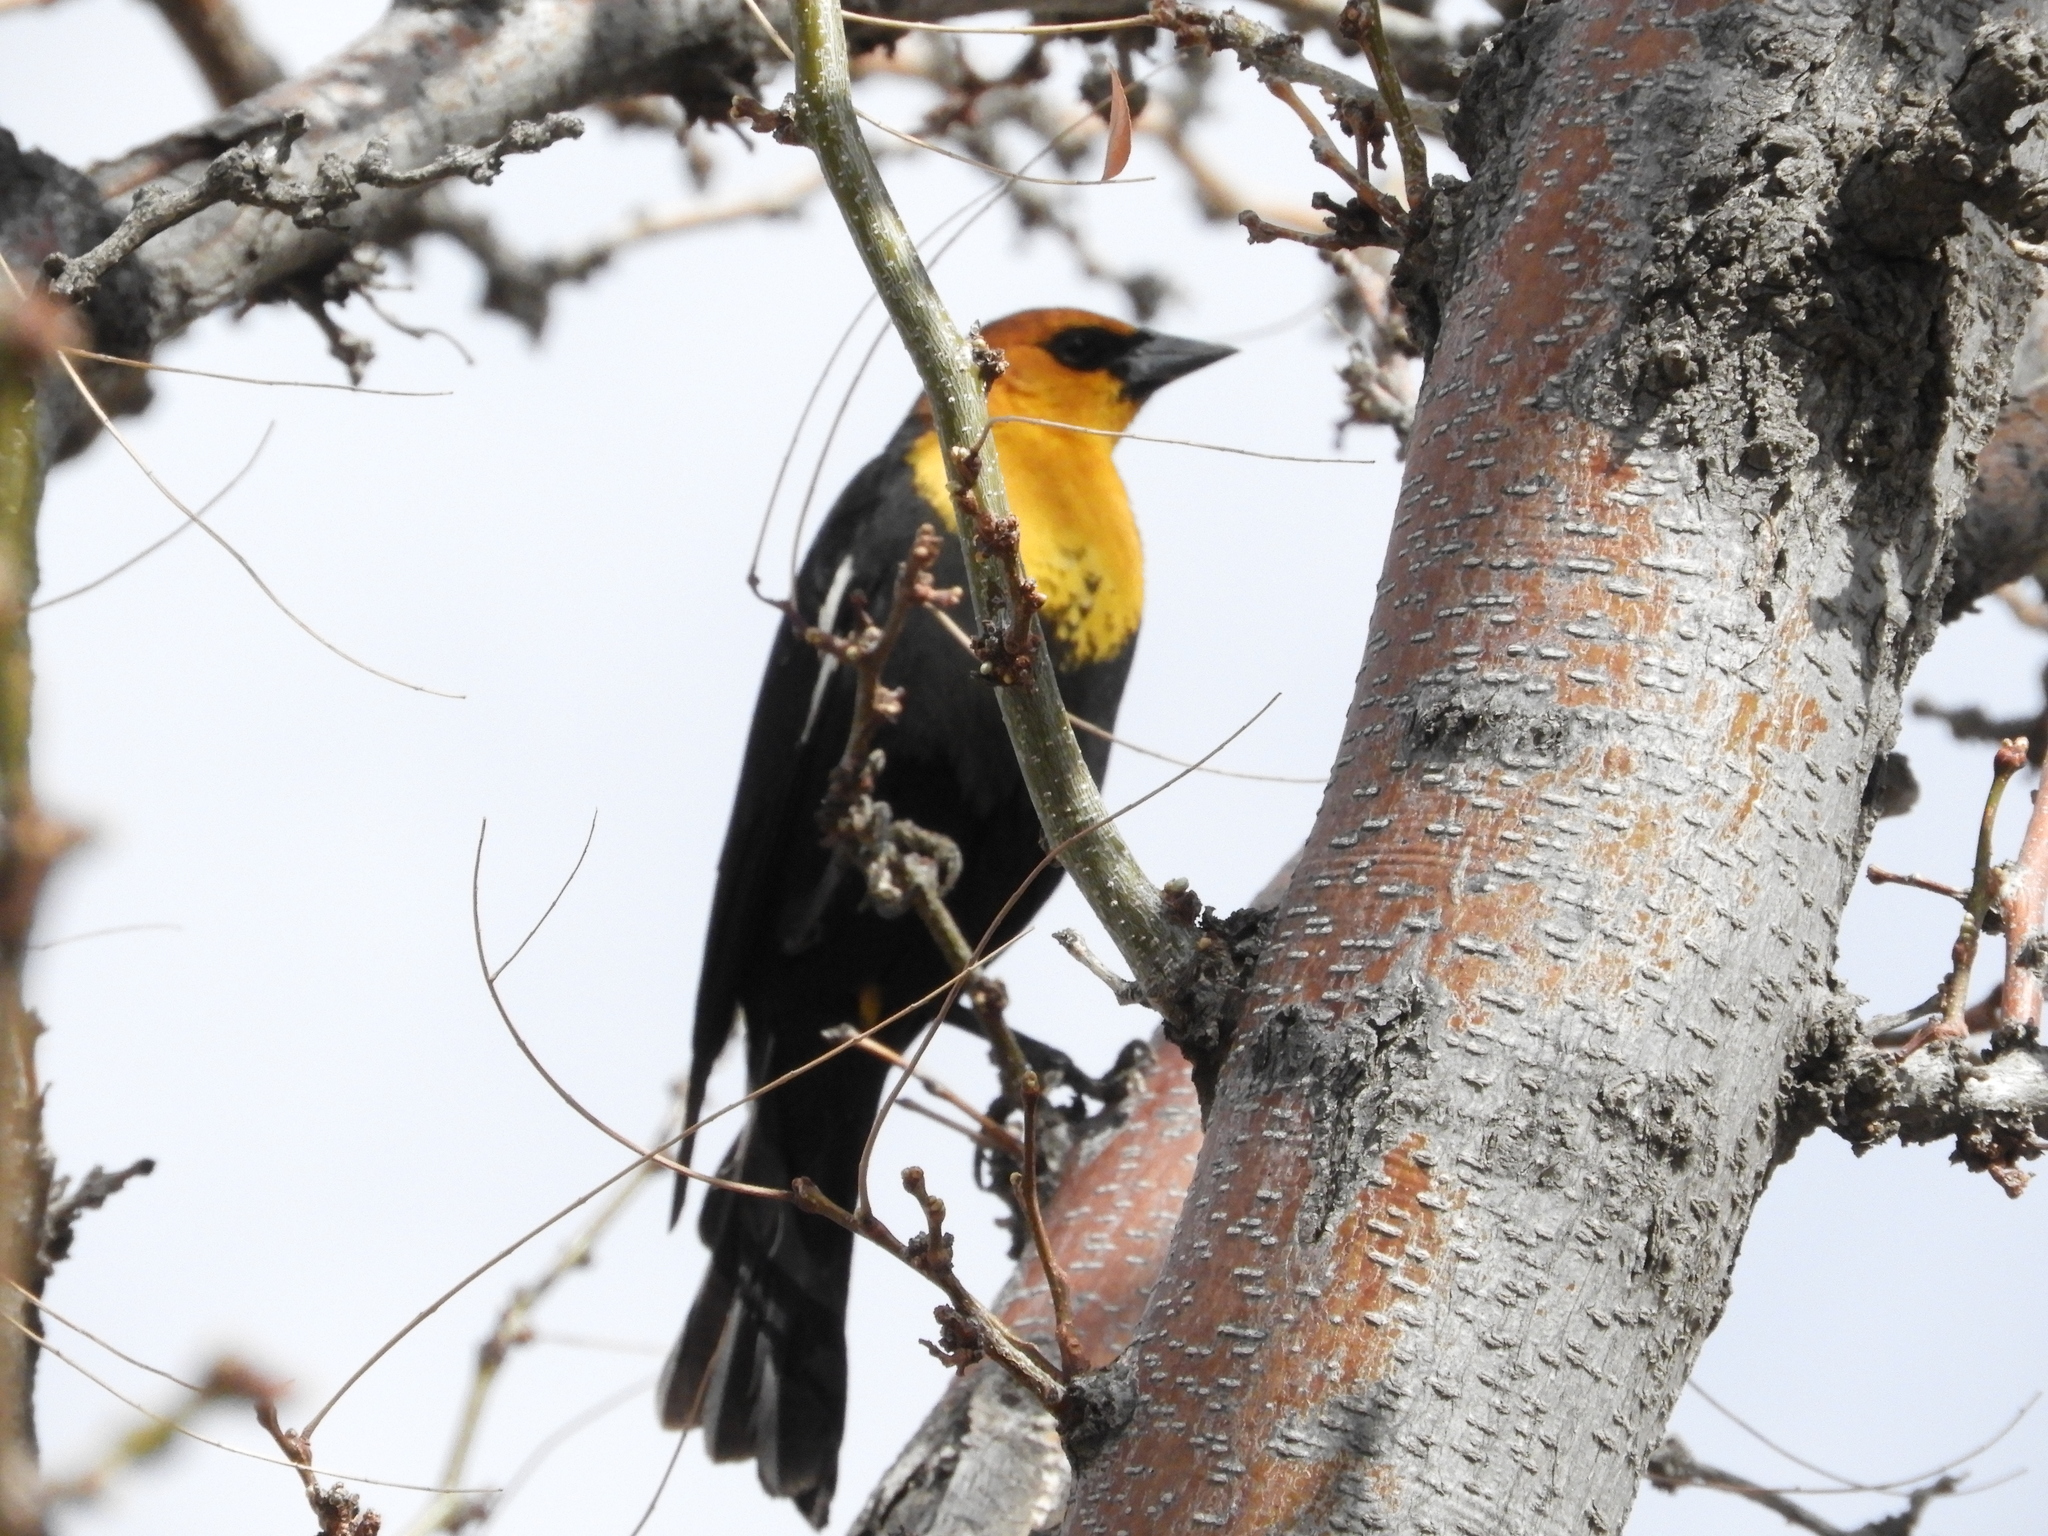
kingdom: Animalia
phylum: Chordata
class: Aves
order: Passeriformes
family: Icteridae
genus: Xanthocephalus
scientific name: Xanthocephalus xanthocephalus
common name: Yellow-headed blackbird
